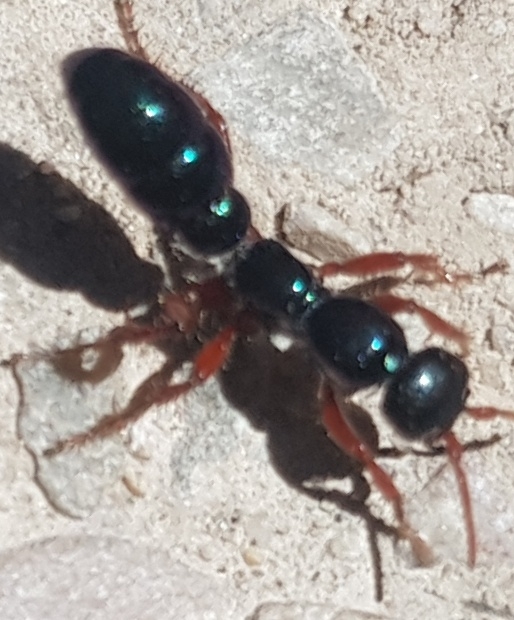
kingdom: Animalia
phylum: Arthropoda
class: Insecta
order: Hymenoptera
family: Tiphiidae
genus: Diamma
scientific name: Diamma
